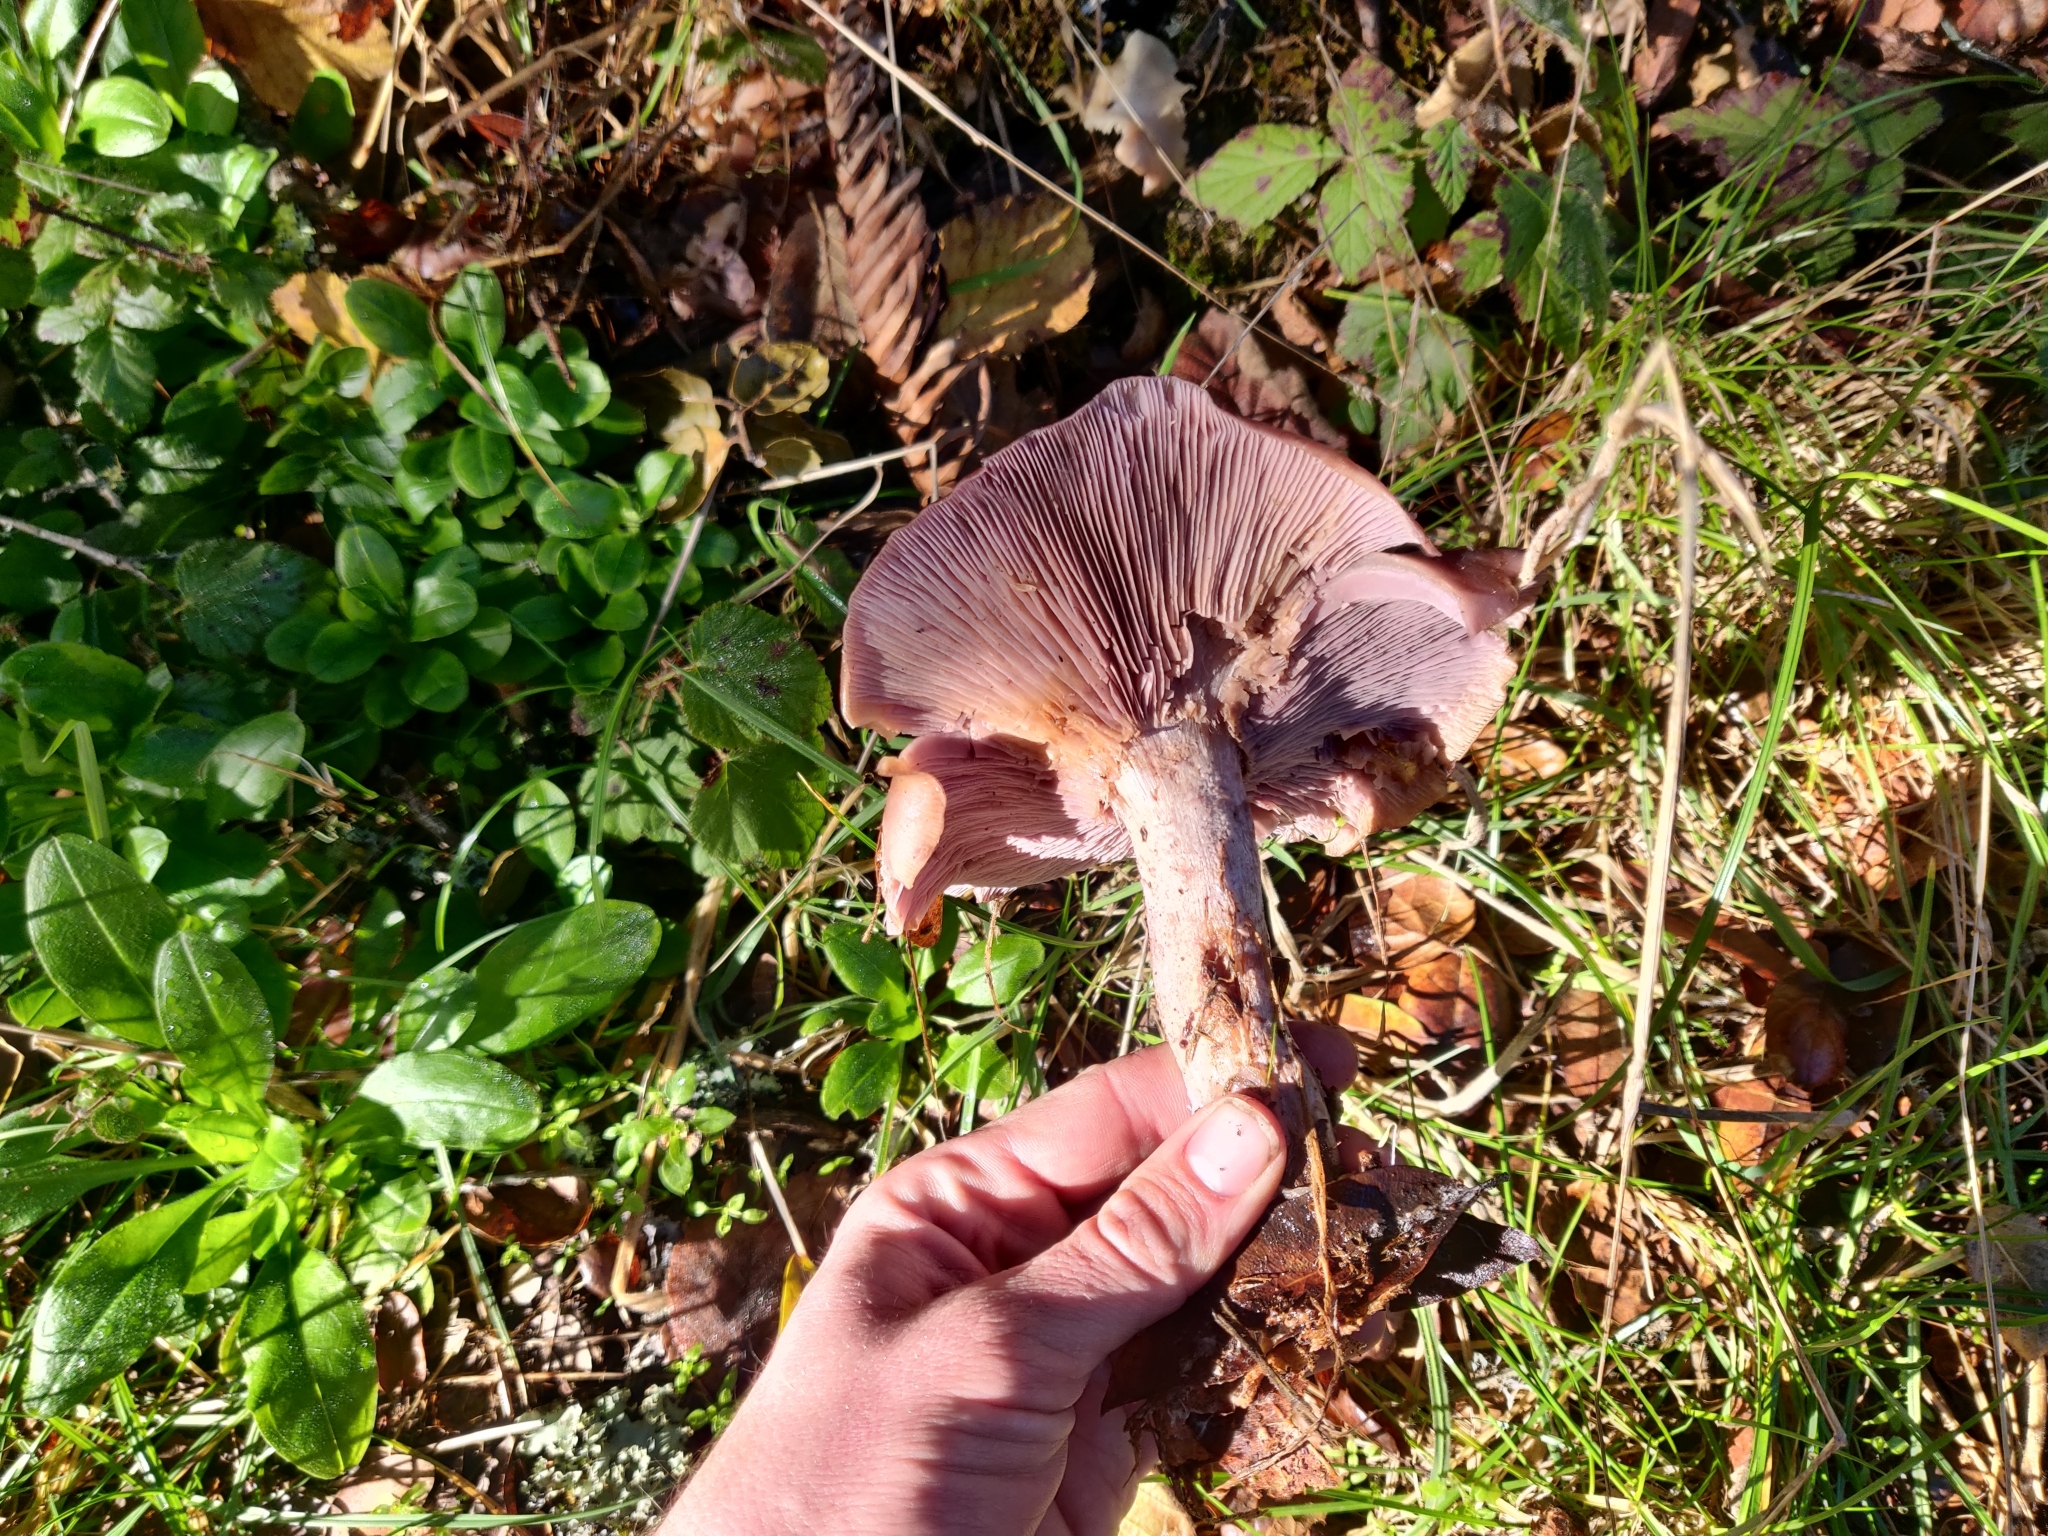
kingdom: Fungi
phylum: Basidiomycota
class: Agaricomycetes
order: Agaricales
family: Tricholomataceae
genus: Collybia
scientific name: Collybia
